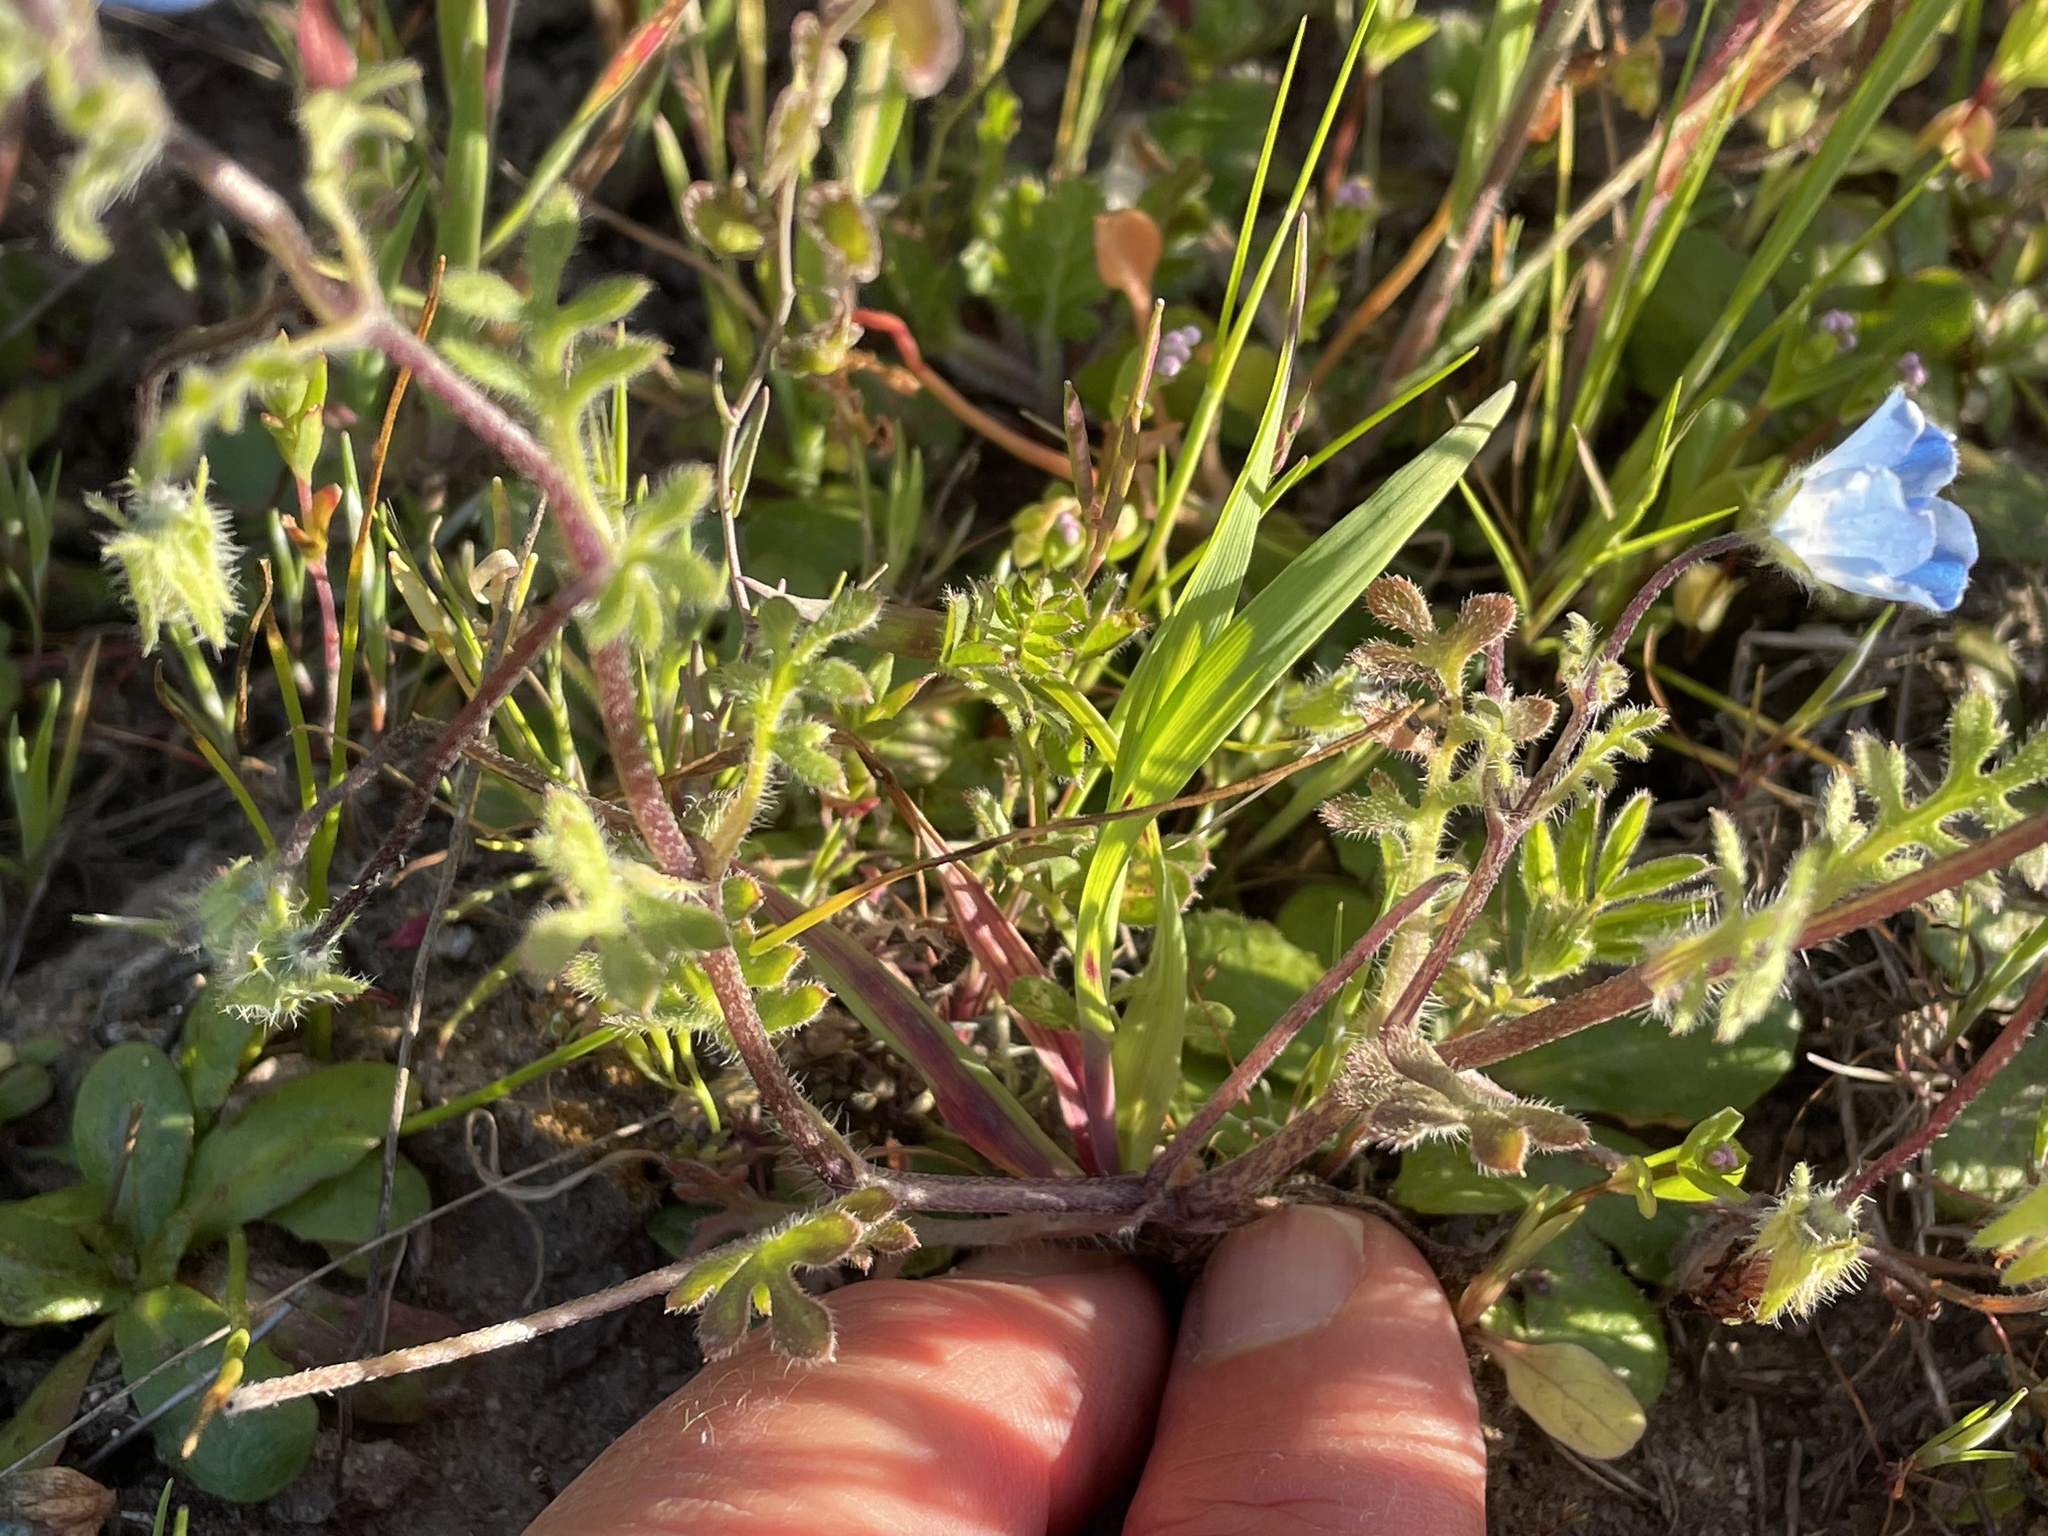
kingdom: Plantae
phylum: Tracheophyta
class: Magnoliopsida
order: Boraginales
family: Hydrophyllaceae
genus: Nemophila
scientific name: Nemophila menziesii
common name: Baby's-blue-eyes
